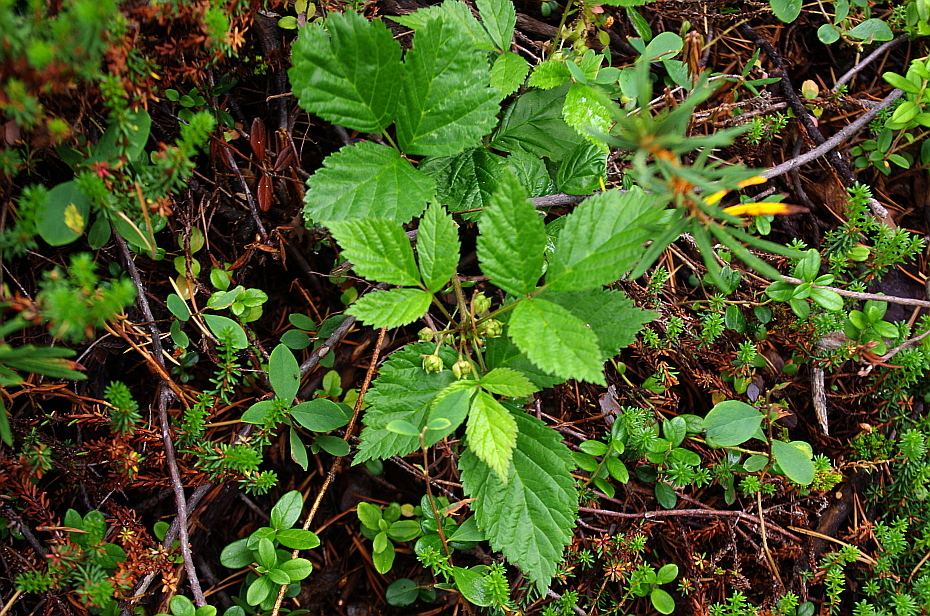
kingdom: Plantae
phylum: Tracheophyta
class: Magnoliopsida
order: Rosales
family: Rosaceae
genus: Rubus
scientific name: Rubus saxatilis
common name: Stone bramble
